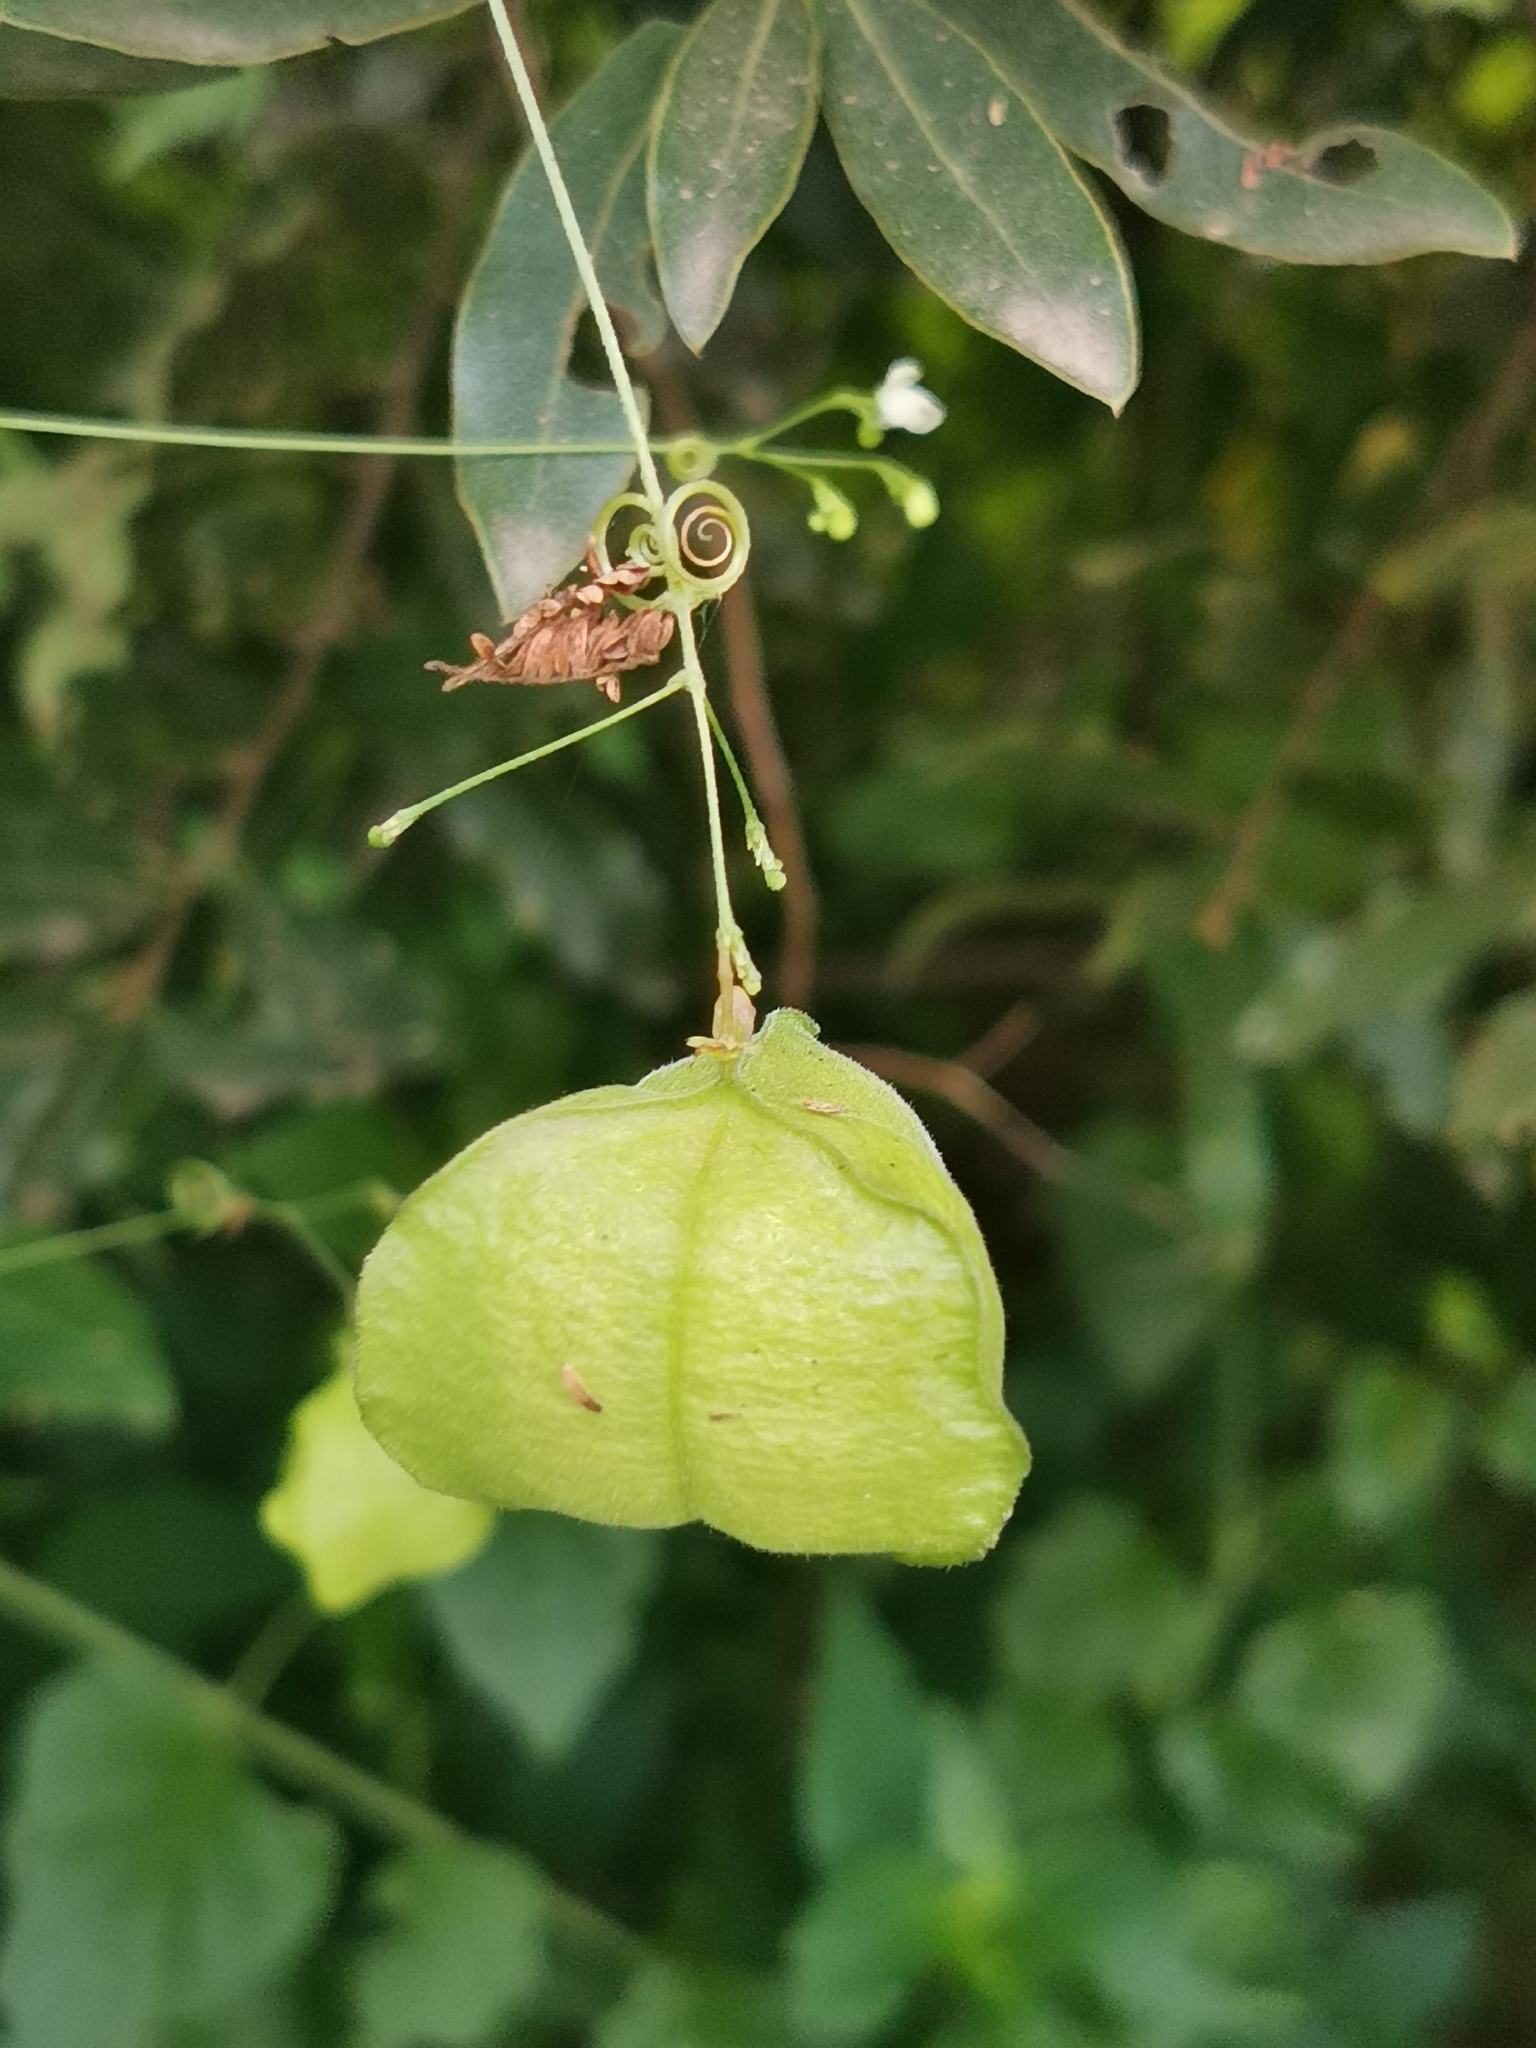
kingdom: Plantae
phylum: Tracheophyta
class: Magnoliopsida
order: Sapindales
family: Sapindaceae
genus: Cardiospermum
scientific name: Cardiospermum halicacabum
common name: Balloon vine
